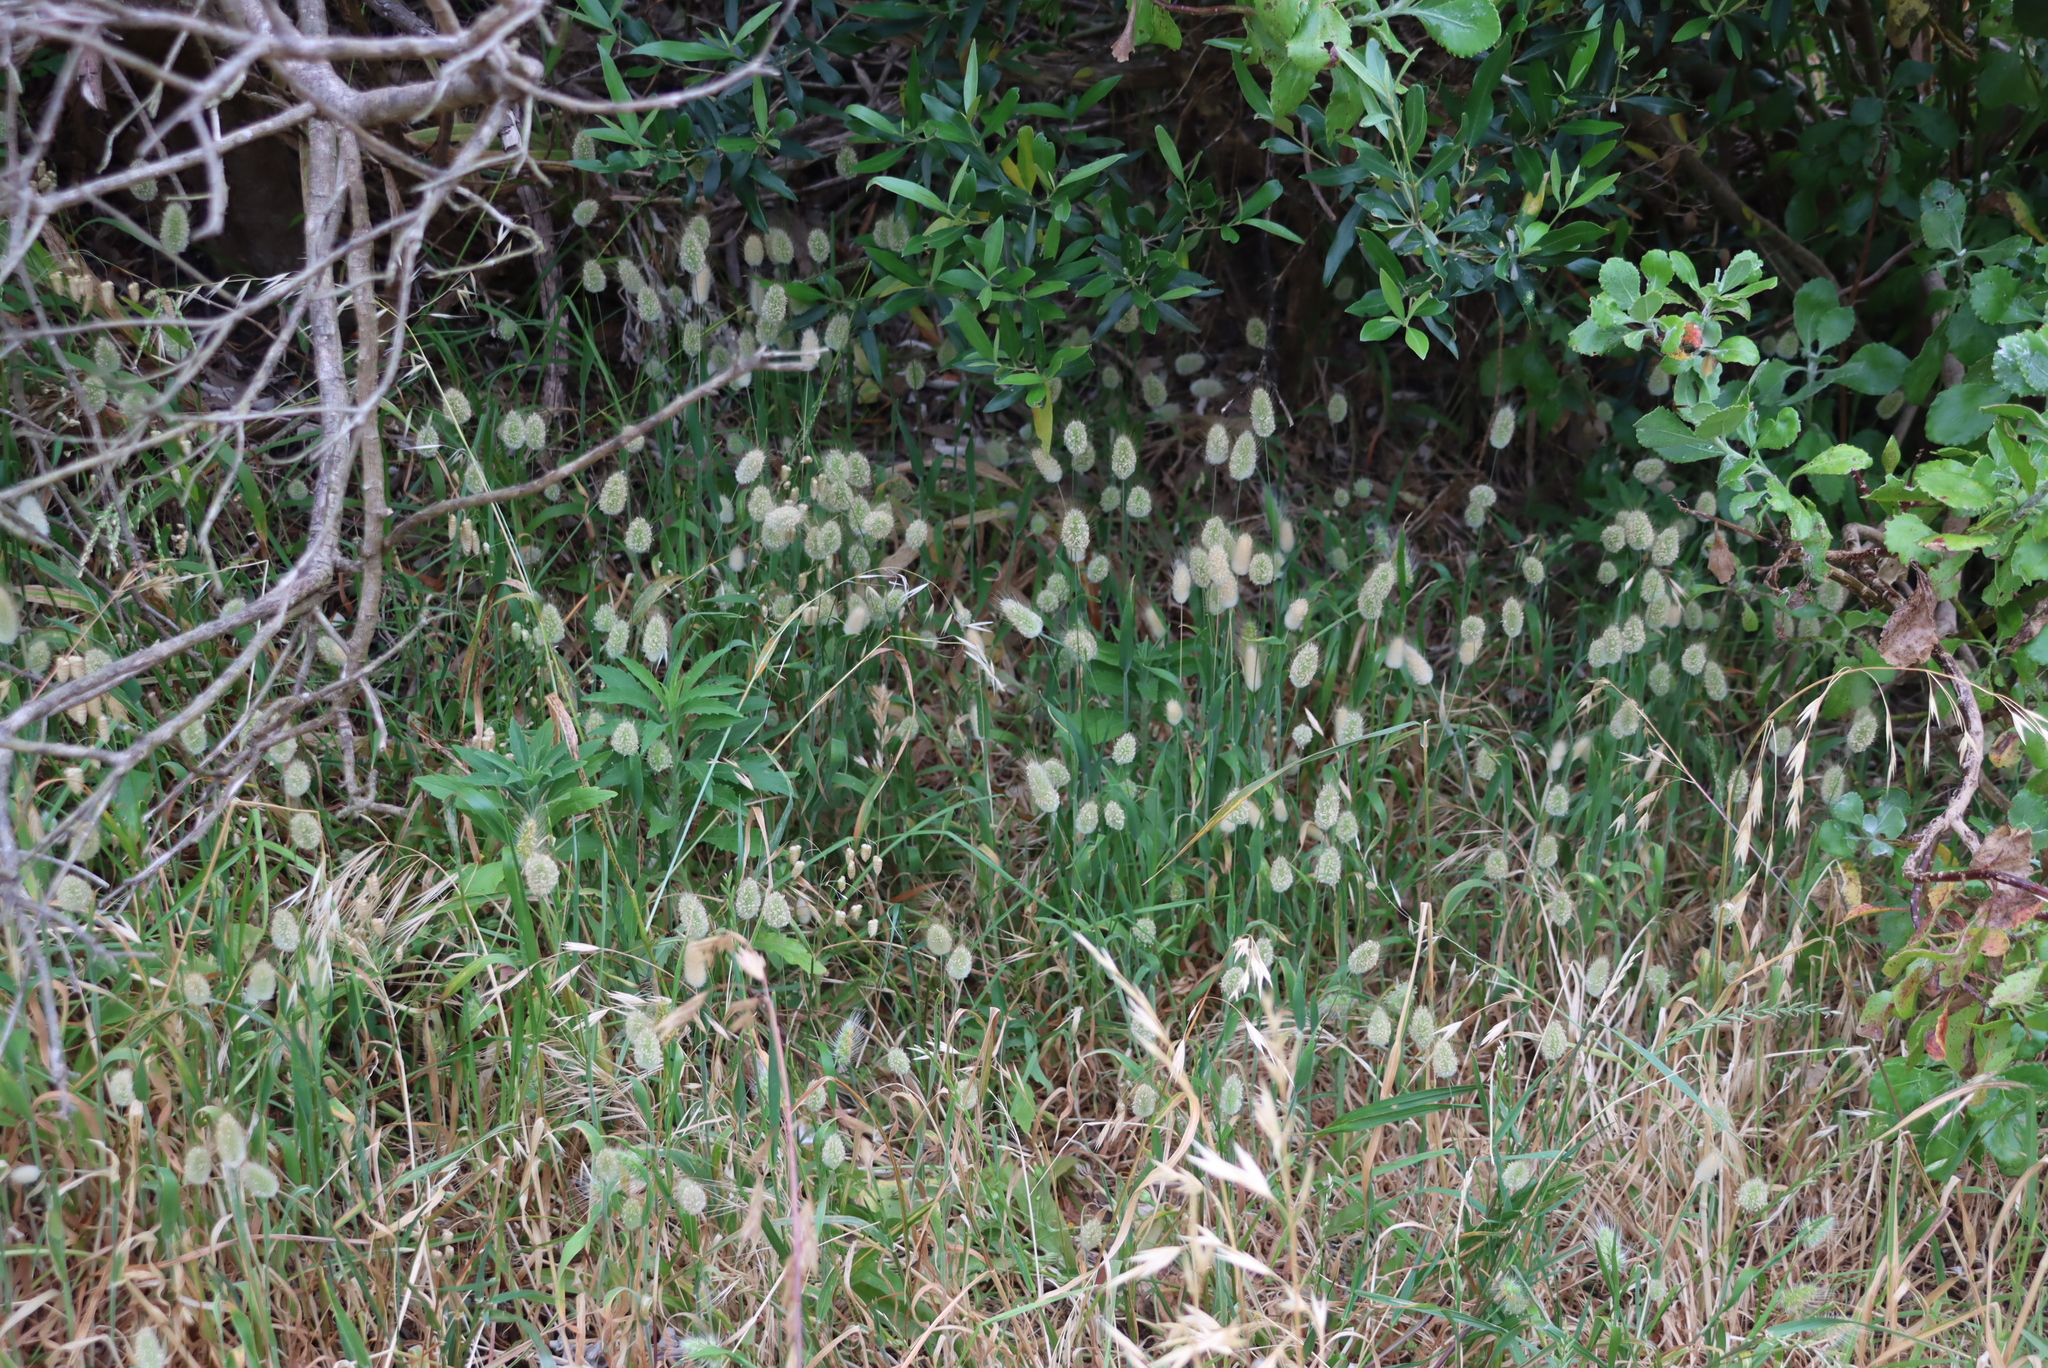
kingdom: Plantae
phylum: Tracheophyta
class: Liliopsida
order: Poales
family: Poaceae
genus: Lagurus
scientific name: Lagurus ovatus
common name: Hare's-tail
